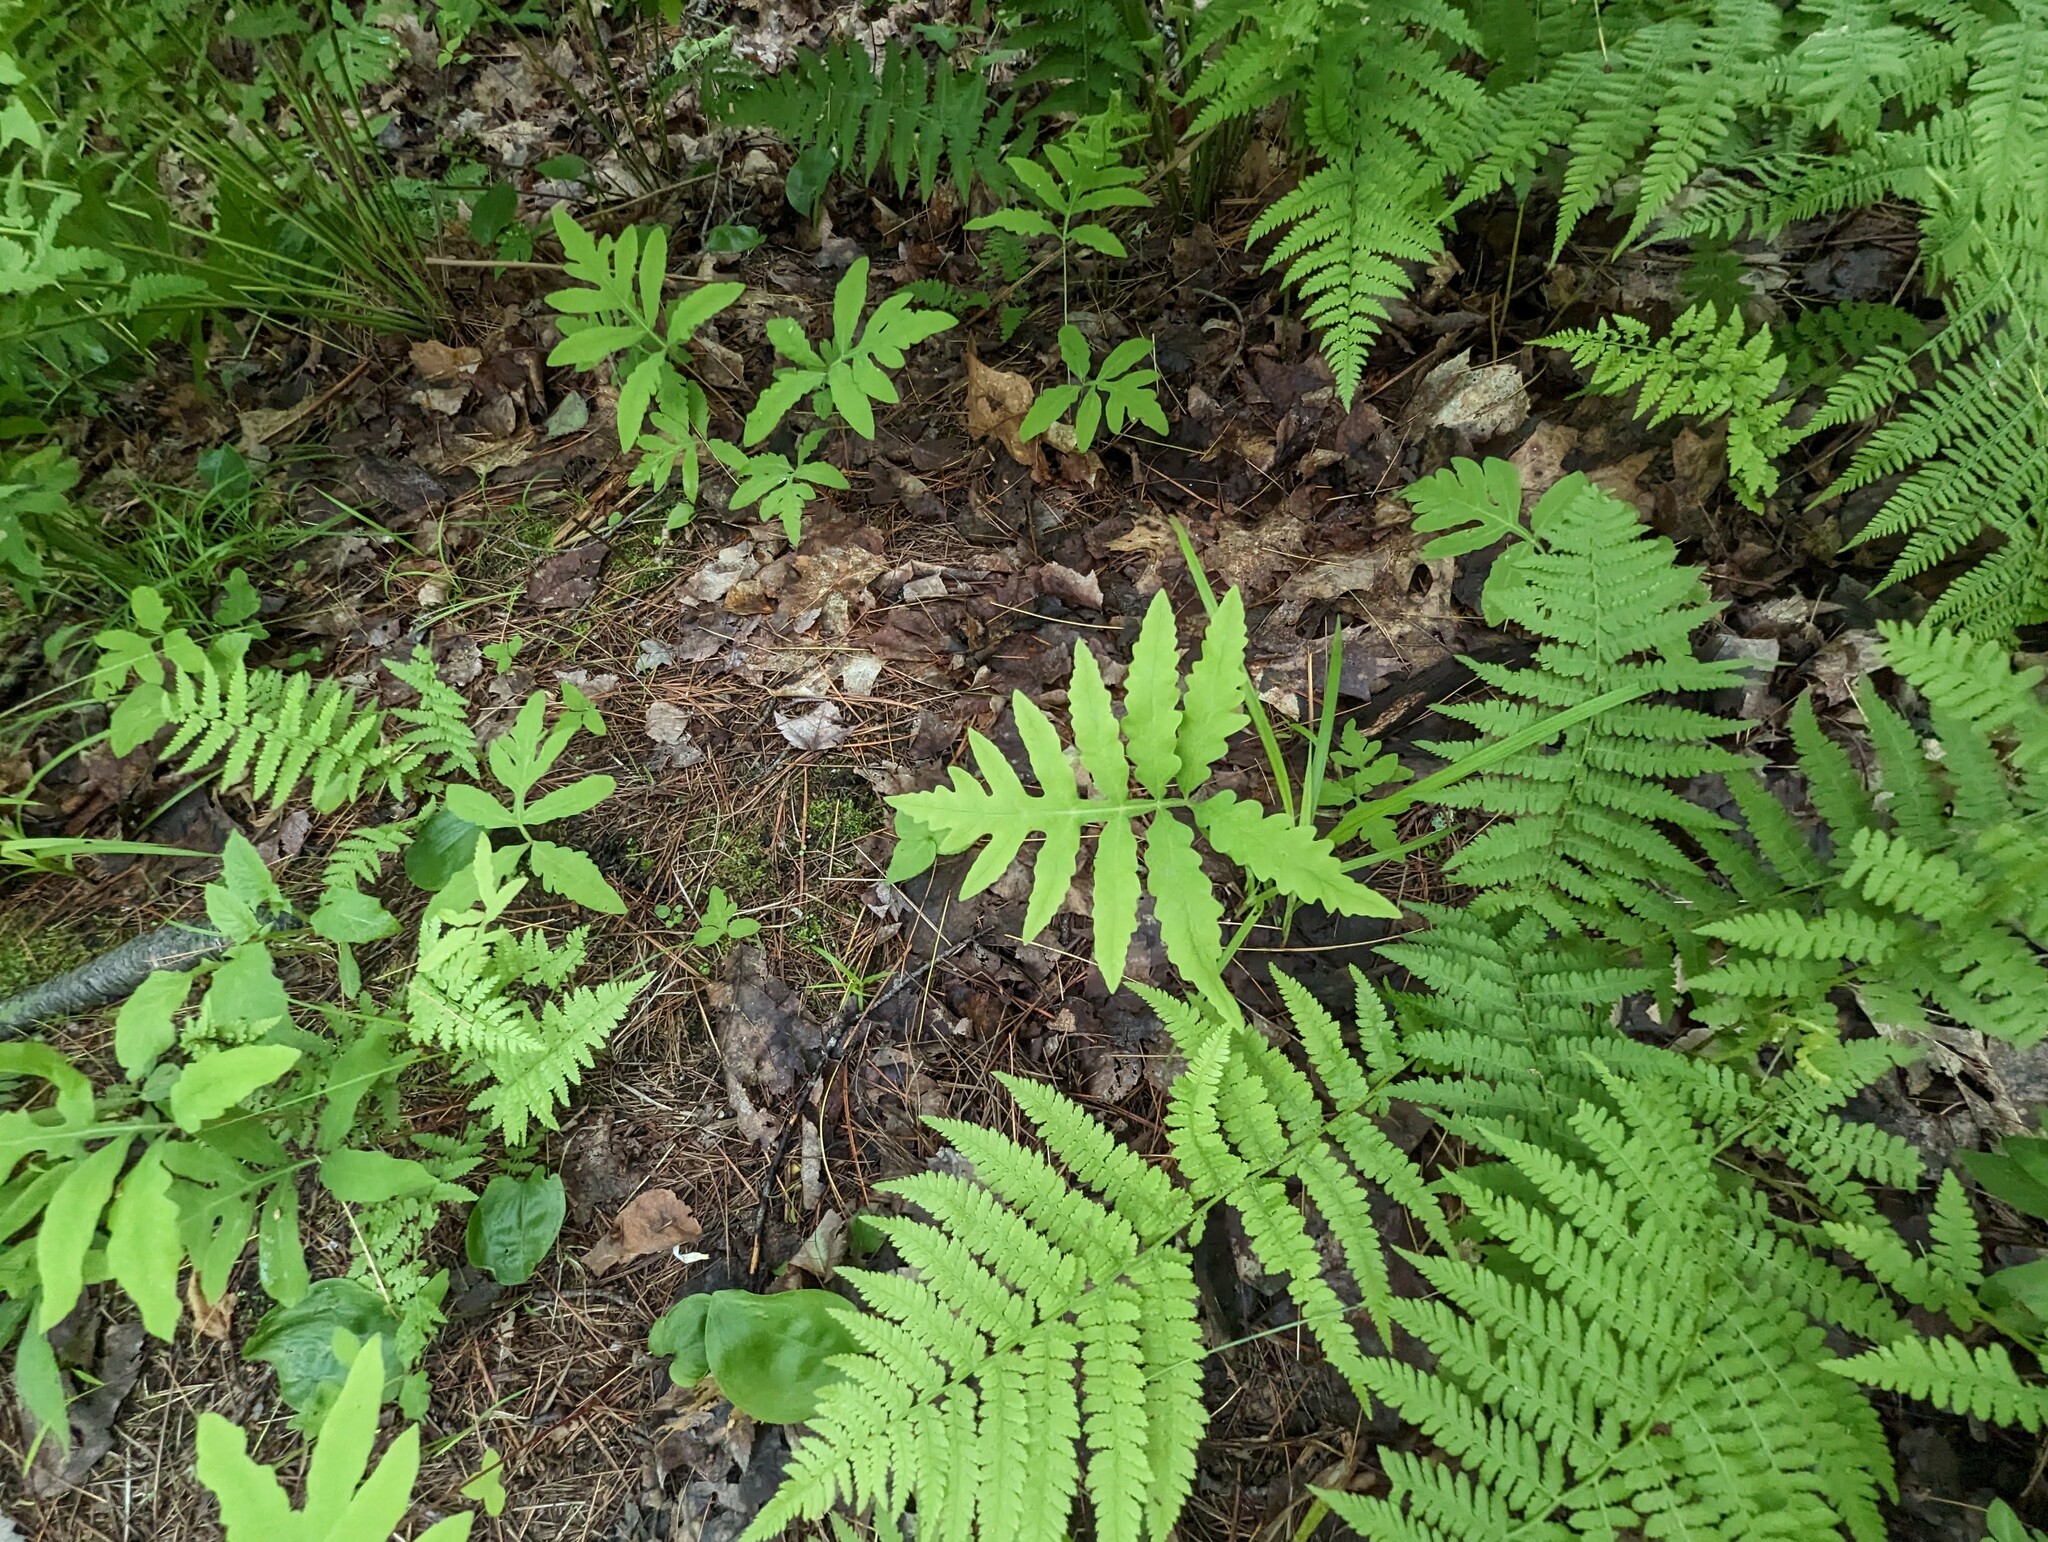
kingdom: Plantae
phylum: Tracheophyta
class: Polypodiopsida
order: Polypodiales
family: Onocleaceae
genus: Onoclea
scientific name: Onoclea sensibilis
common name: Sensitive fern
